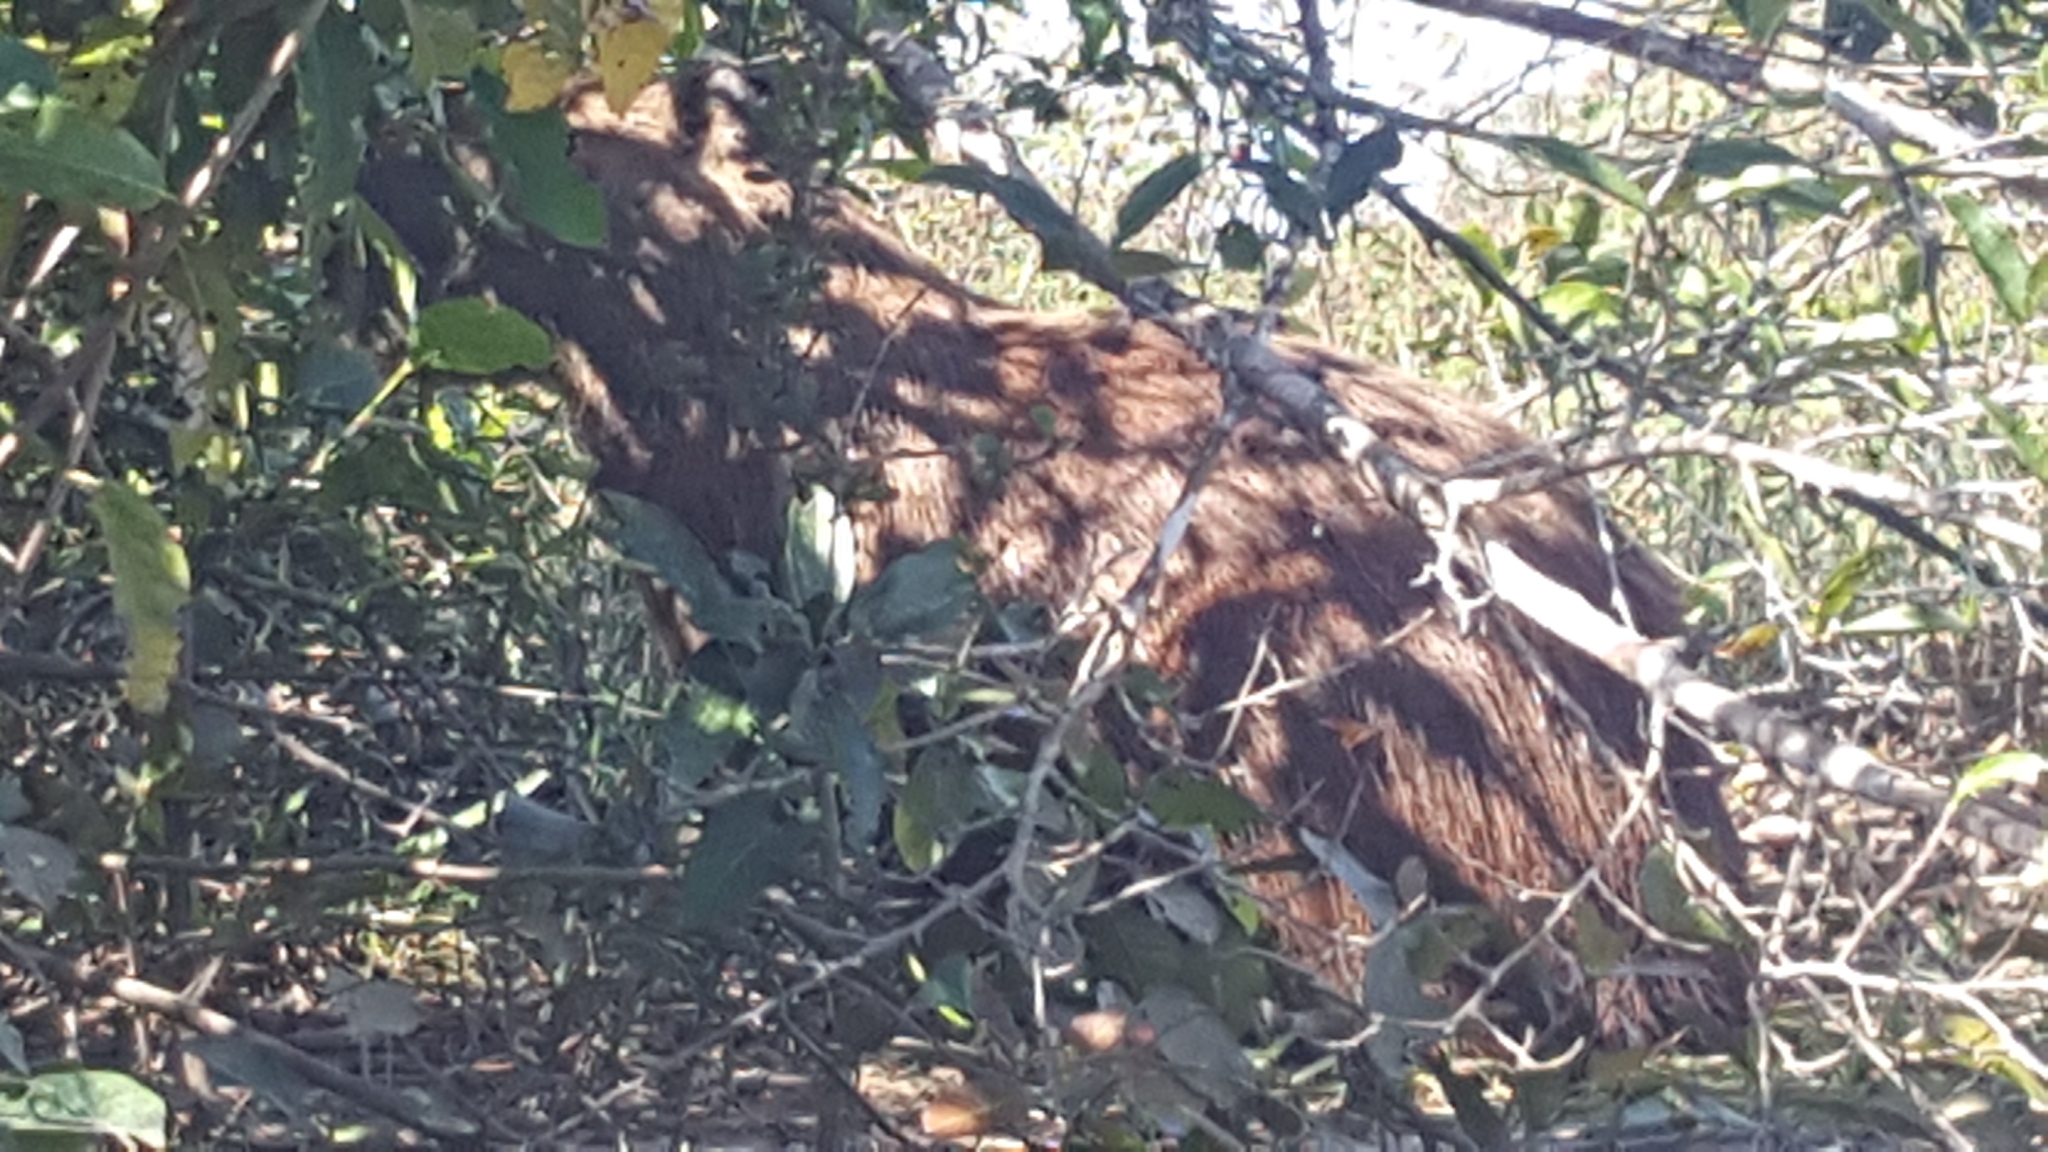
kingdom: Animalia
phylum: Chordata
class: Mammalia
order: Rodentia
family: Caviidae
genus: Hydrochoerus
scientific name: Hydrochoerus hydrochaeris
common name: Capybara
